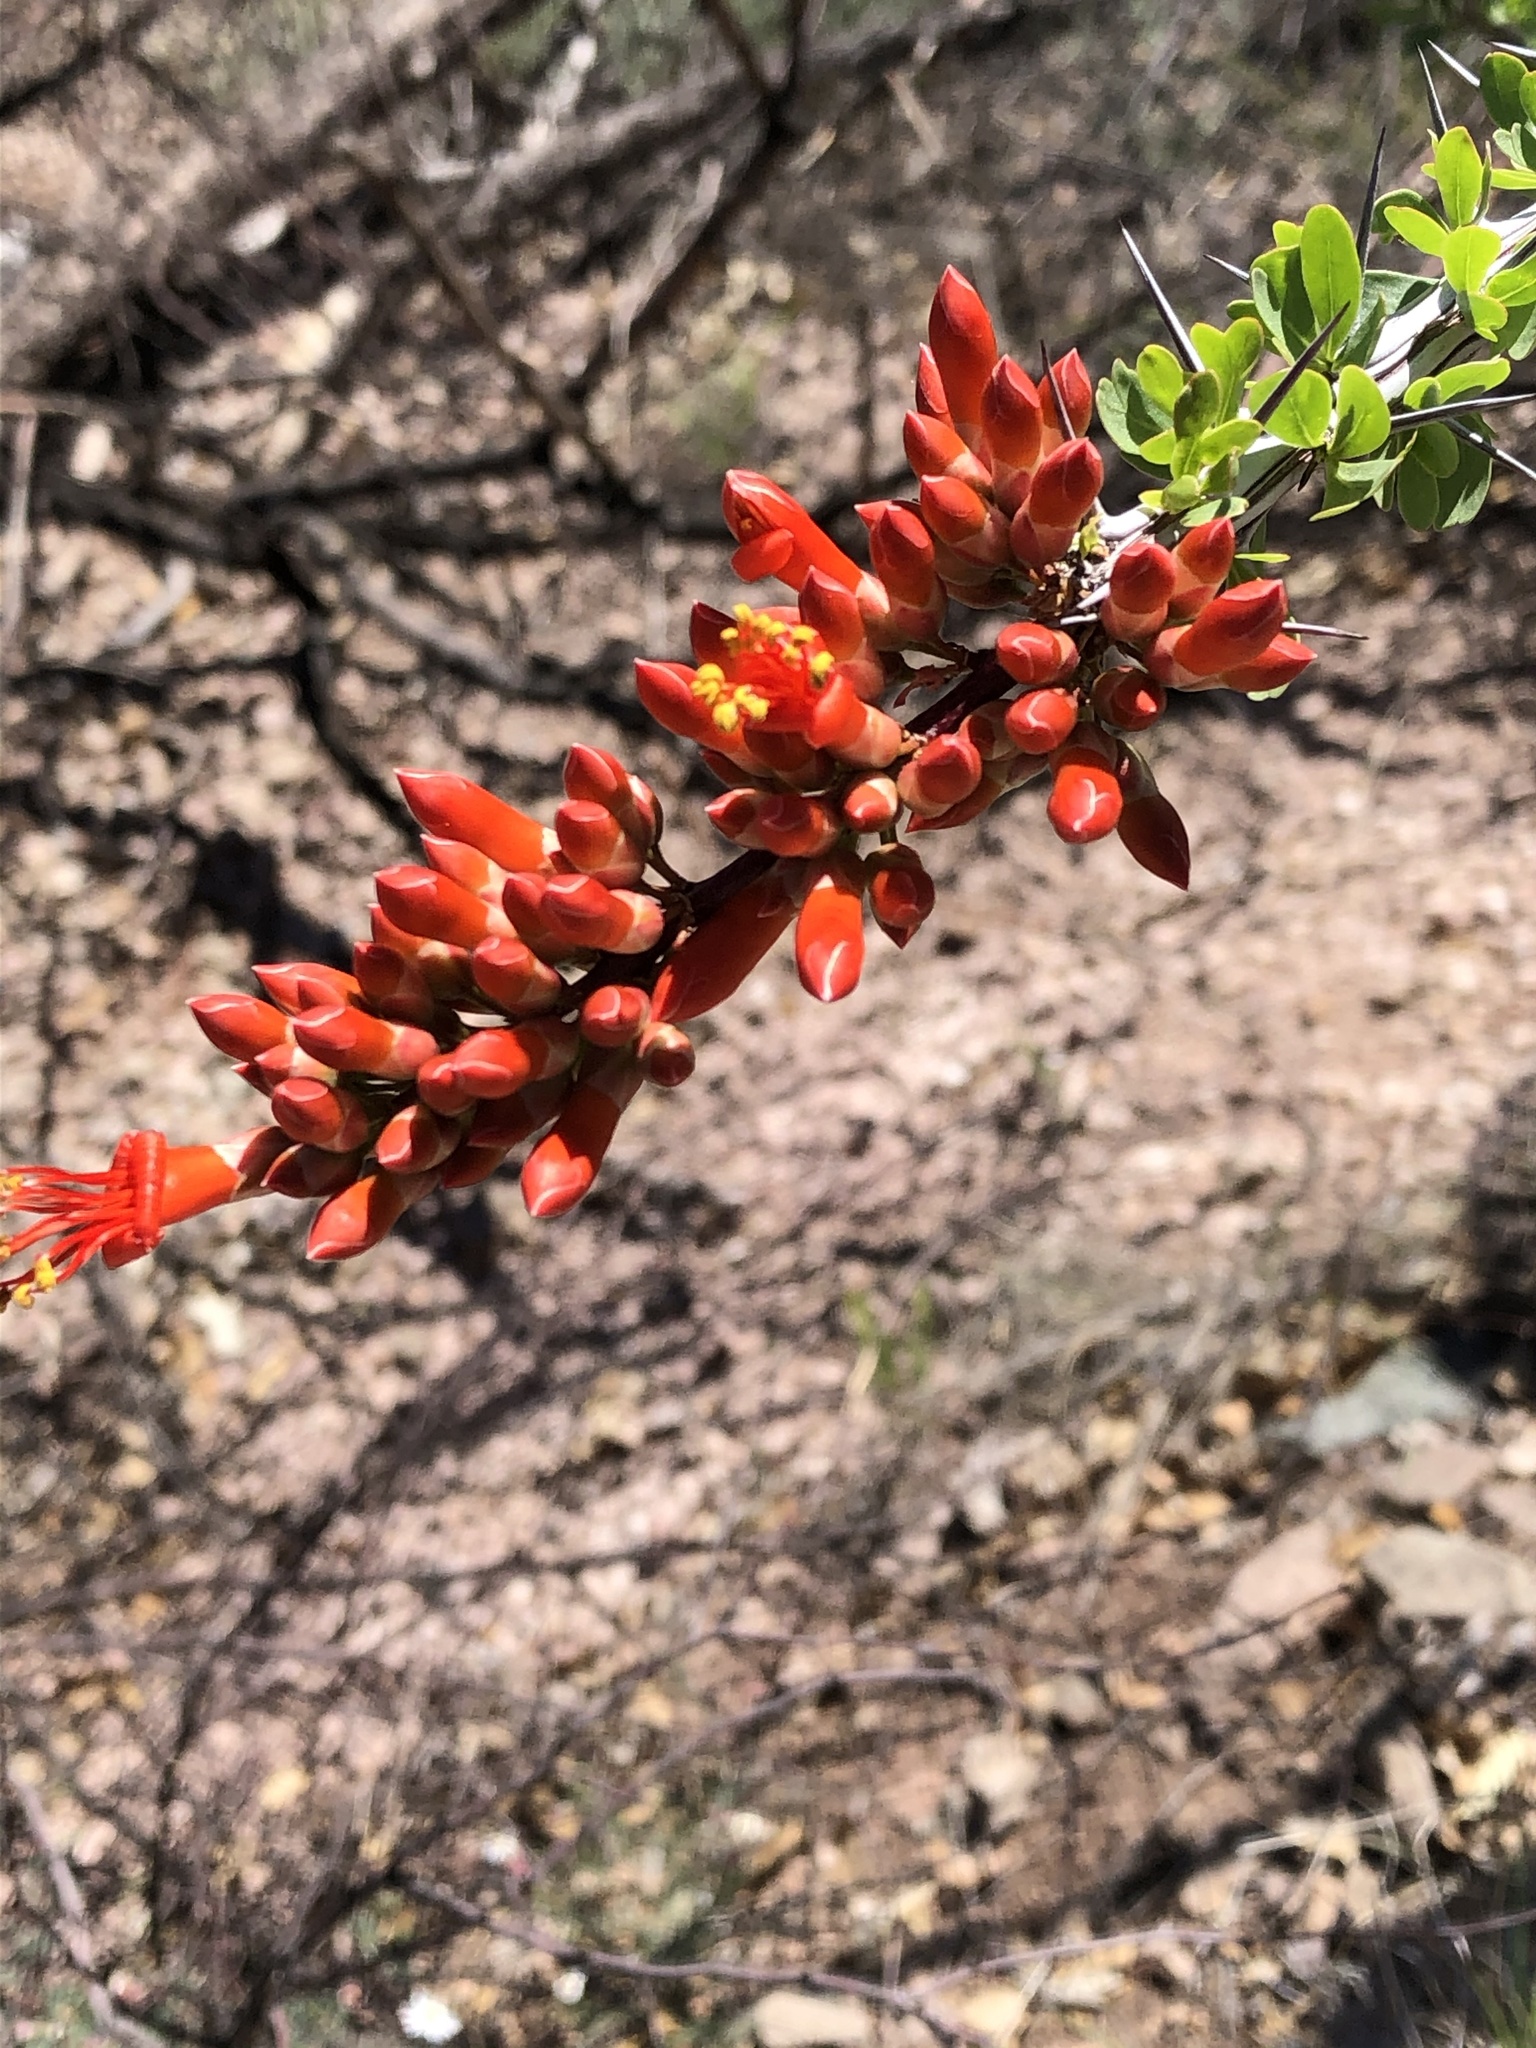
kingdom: Plantae
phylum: Tracheophyta
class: Magnoliopsida
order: Ericales
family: Fouquieriaceae
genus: Fouquieria
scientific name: Fouquieria splendens
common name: Vine-cactus
